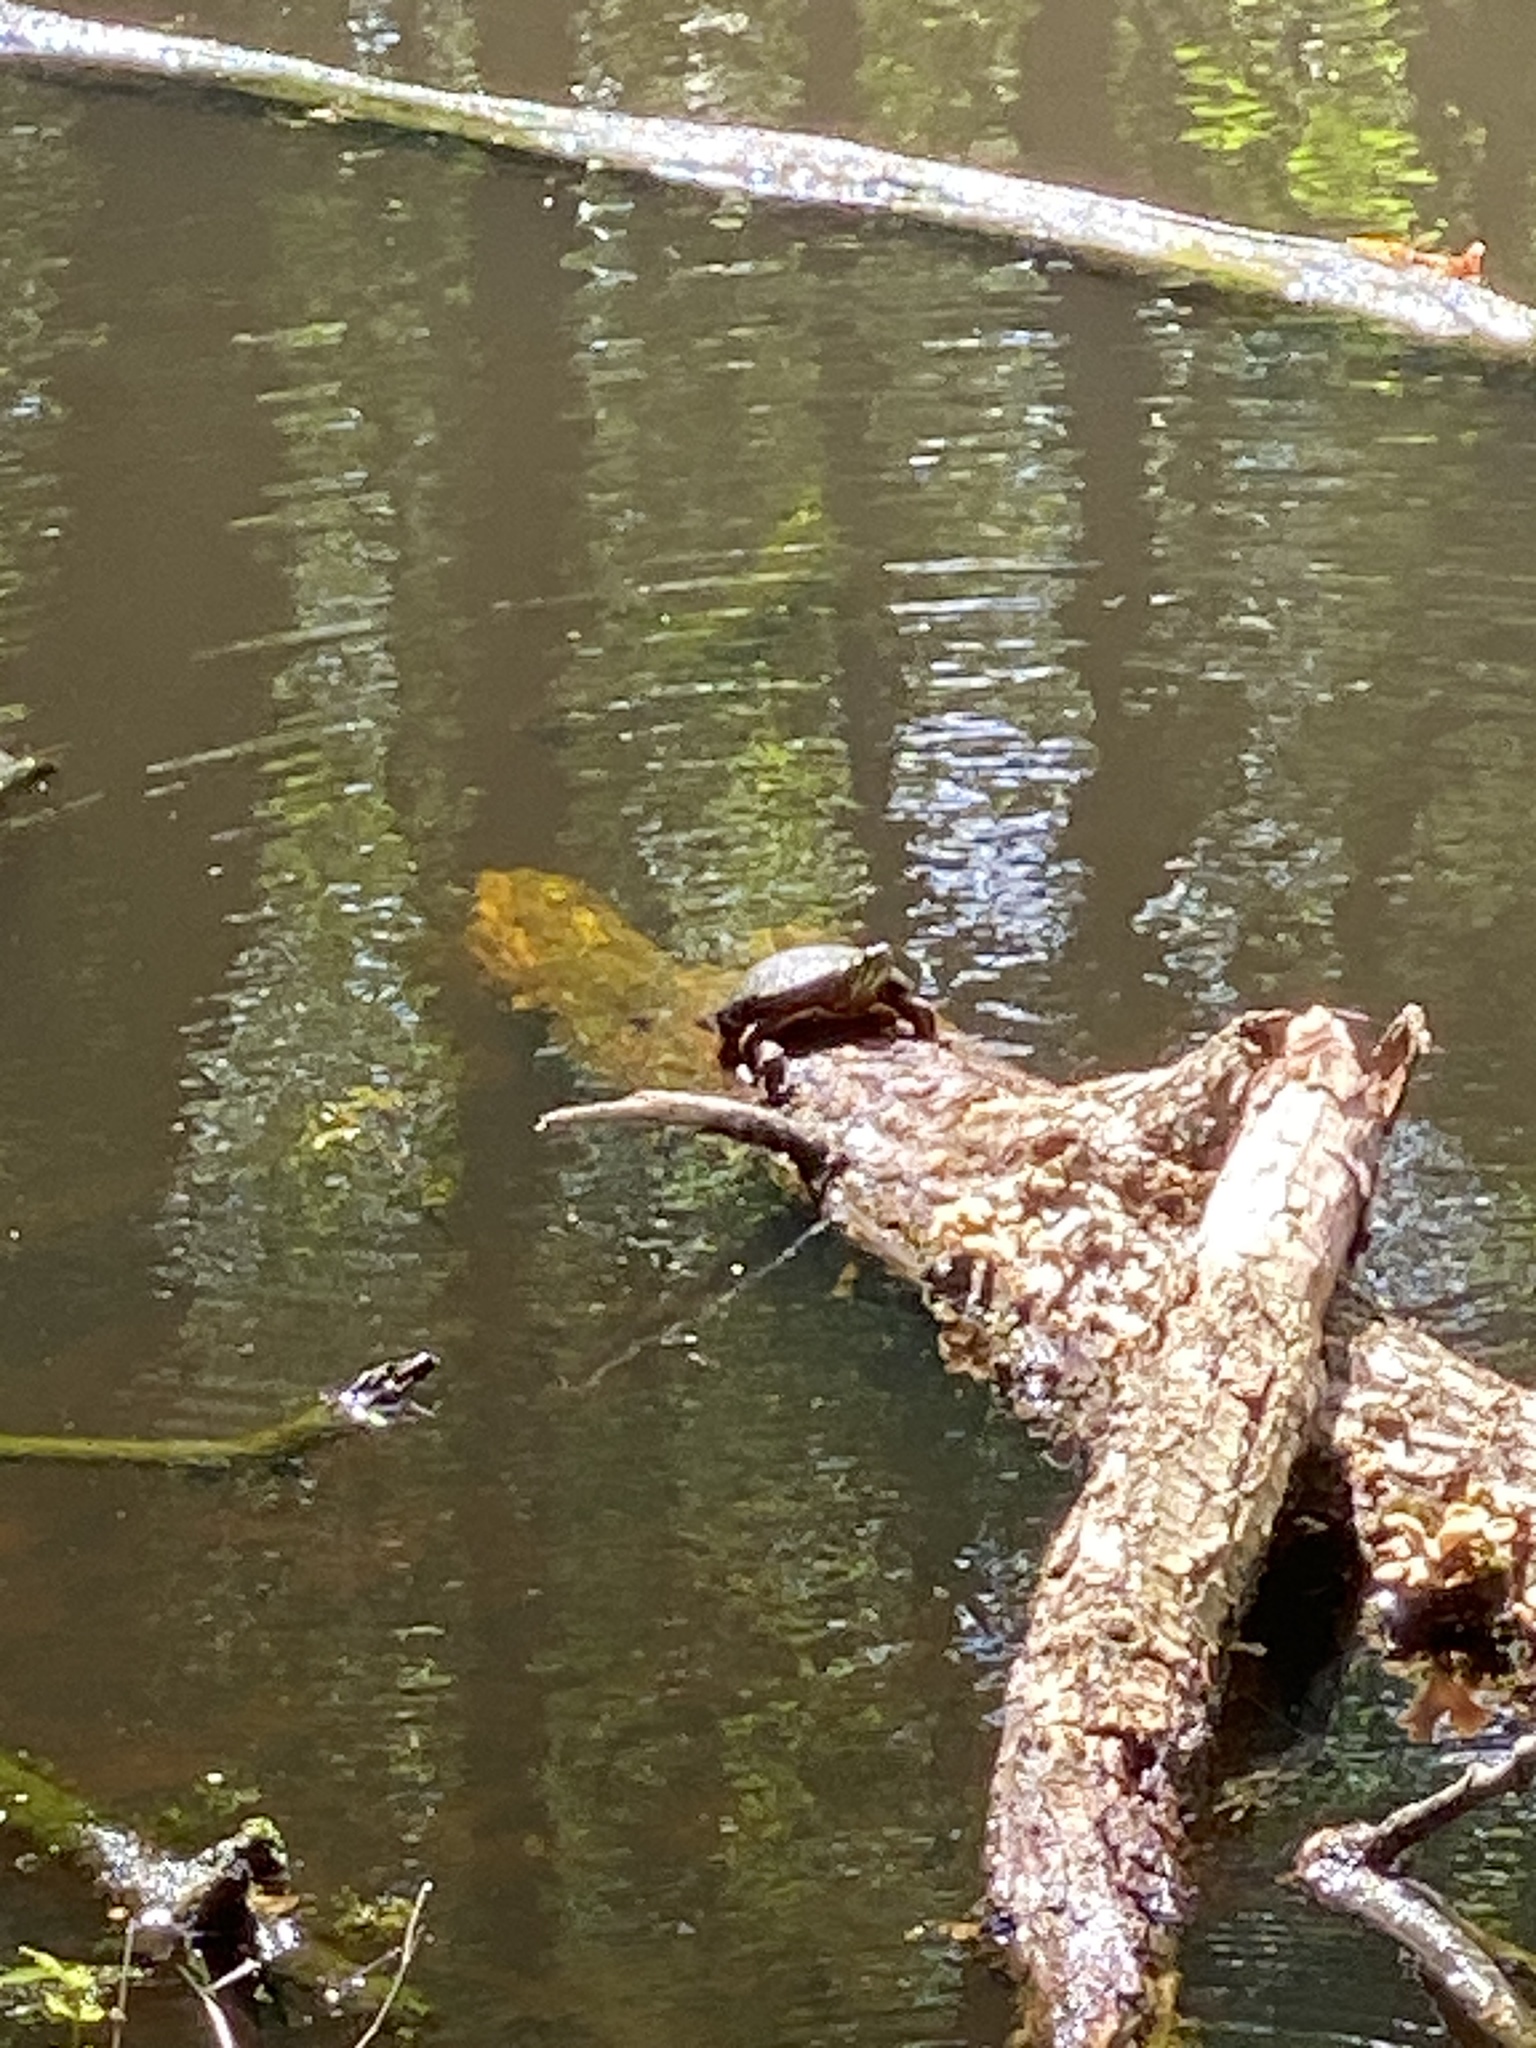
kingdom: Animalia
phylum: Chordata
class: Testudines
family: Emydidae
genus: Chrysemys
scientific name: Chrysemys picta
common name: Painted turtle
